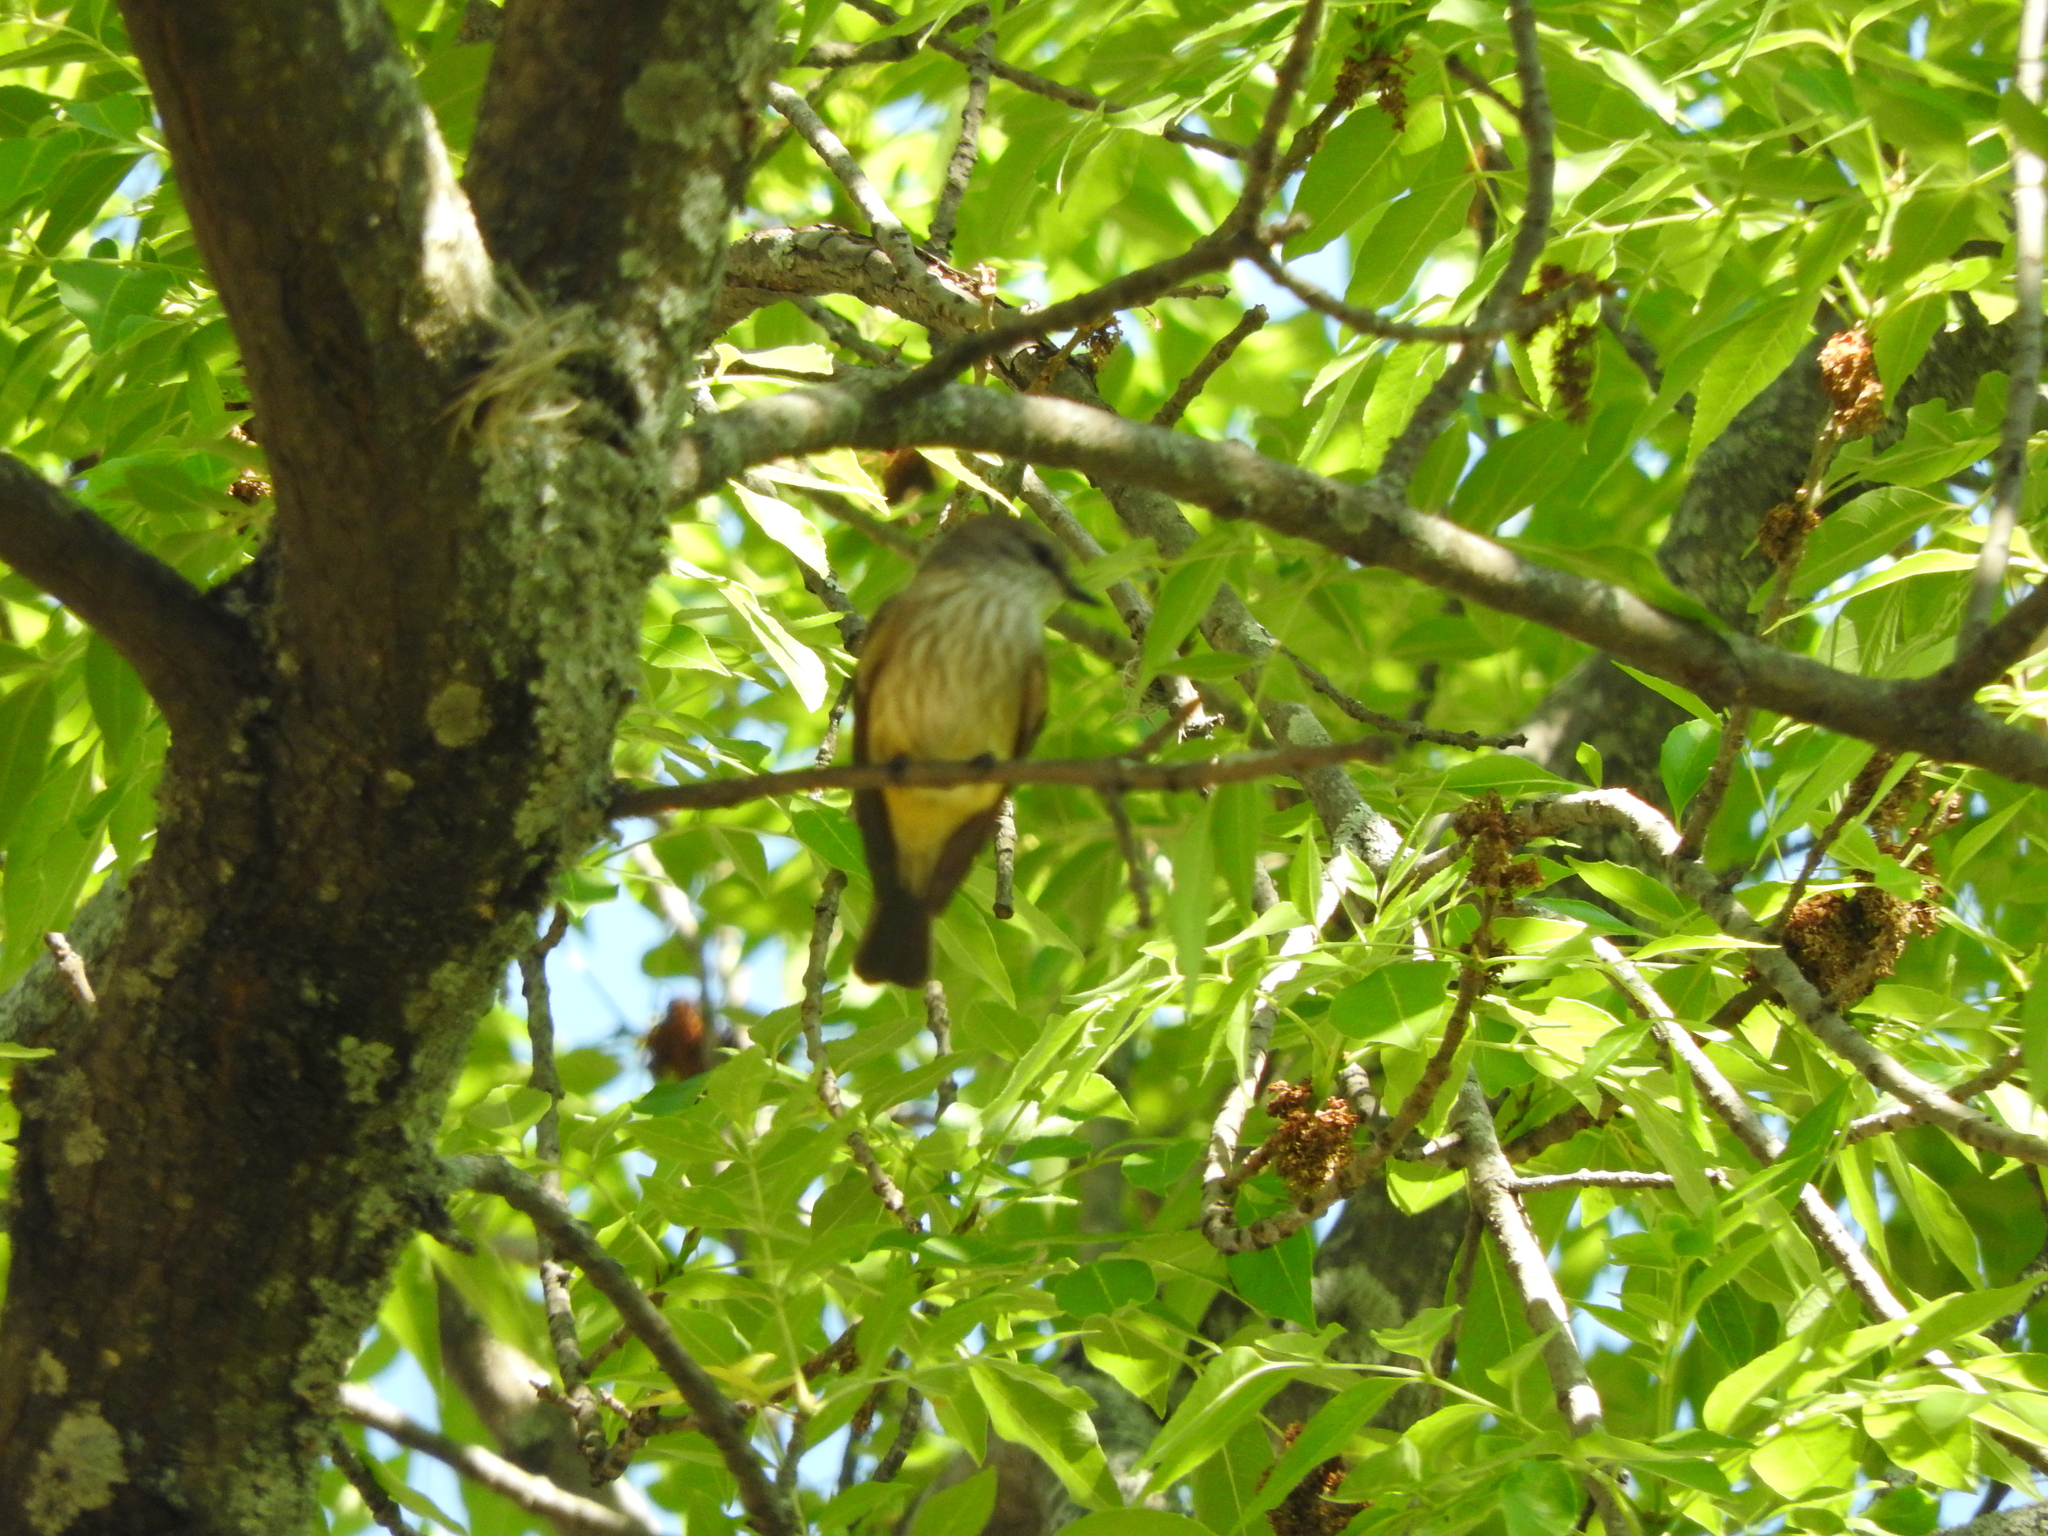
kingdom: Animalia
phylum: Chordata
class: Aves
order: Passeriformes
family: Tyrannidae
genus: Pyrocephalus
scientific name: Pyrocephalus rubinus
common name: Vermilion flycatcher
